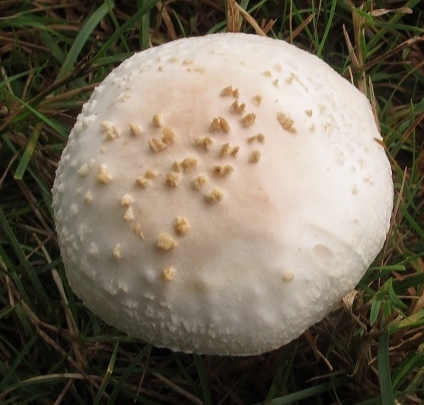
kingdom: Fungi
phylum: Basidiomycota
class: Agaricomycetes
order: Agaricales
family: Amanitaceae
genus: Amanita
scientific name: Amanita abrupta
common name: American abrupt-bulbed lepidella
